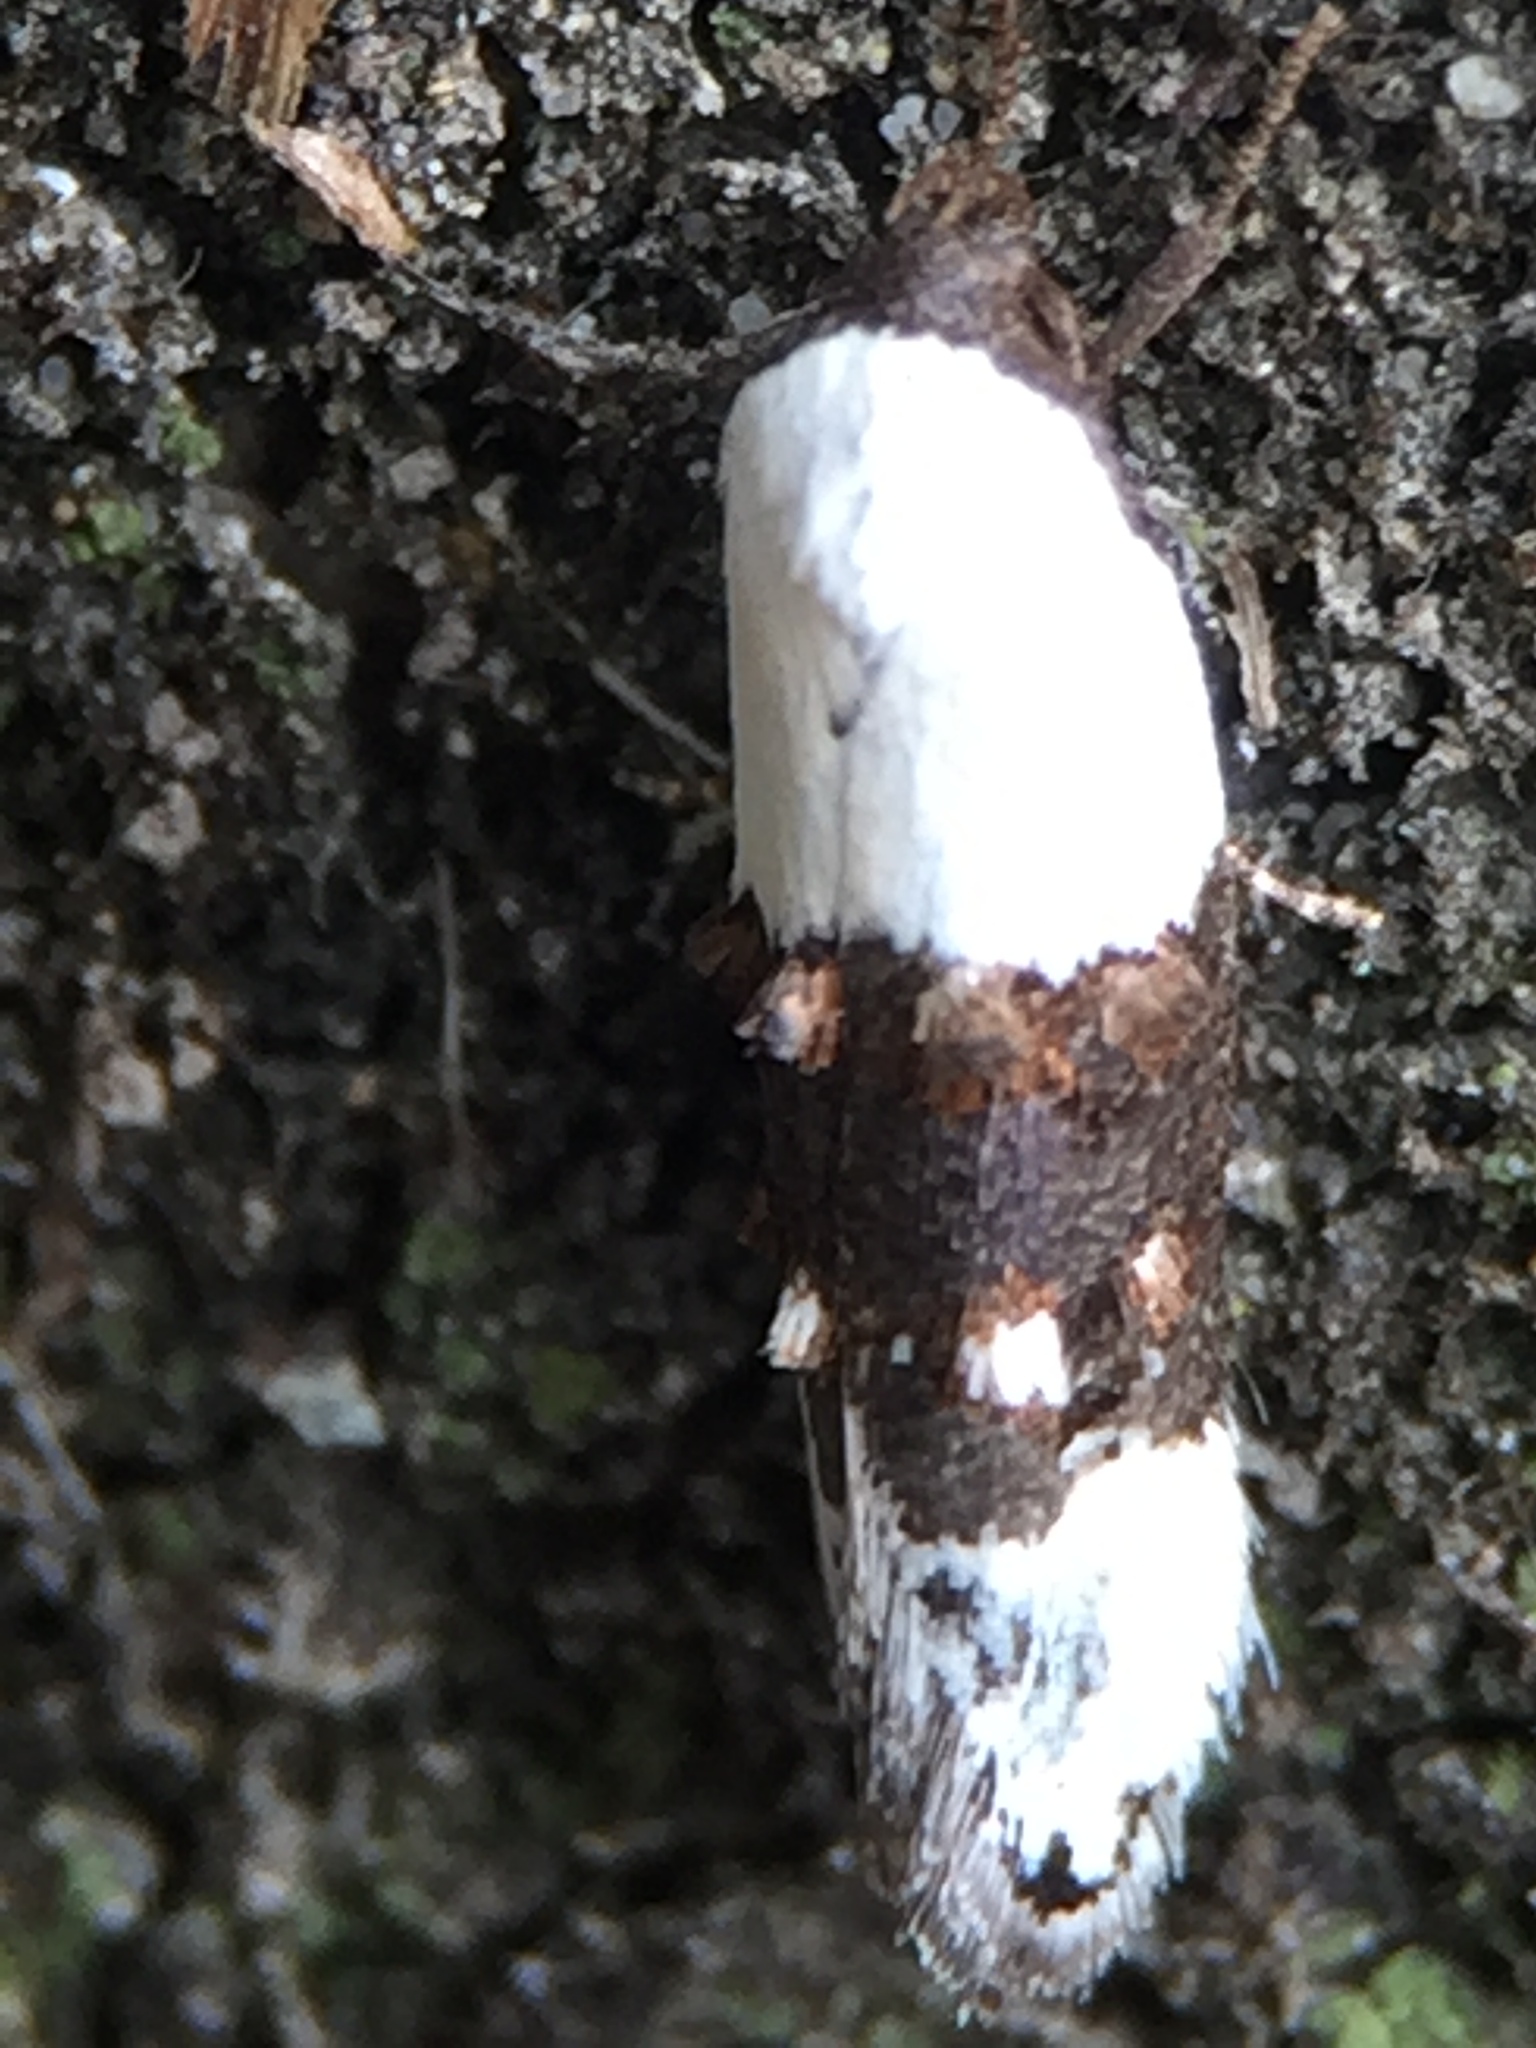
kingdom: Animalia
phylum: Arthropoda
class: Insecta
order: Lepidoptera
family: Oecophoridae
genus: Trachypepla
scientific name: Trachypepla amphileuca
